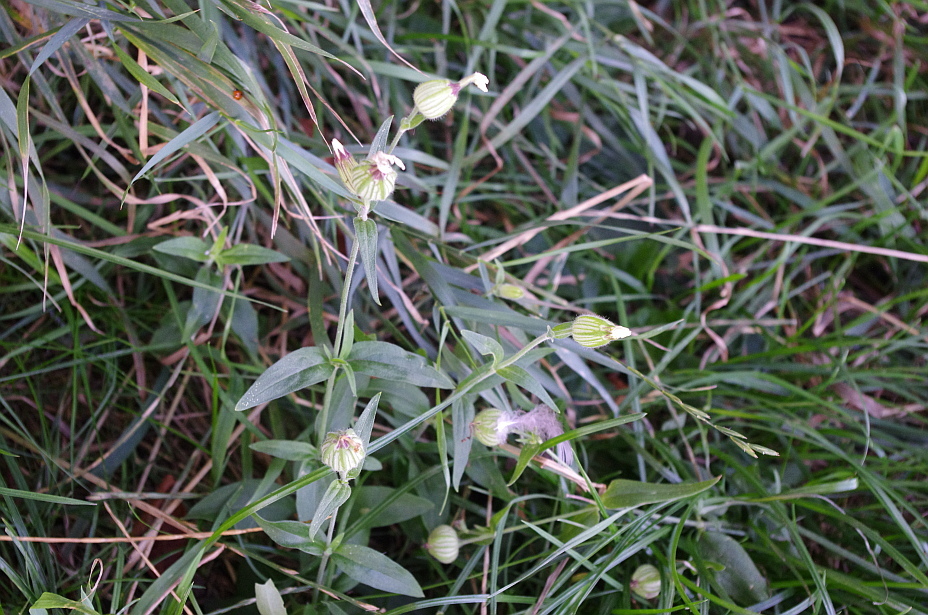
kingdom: Plantae
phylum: Tracheophyta
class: Magnoliopsida
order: Caryophyllales
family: Caryophyllaceae
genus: Silene
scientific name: Silene latifolia
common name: White campion
